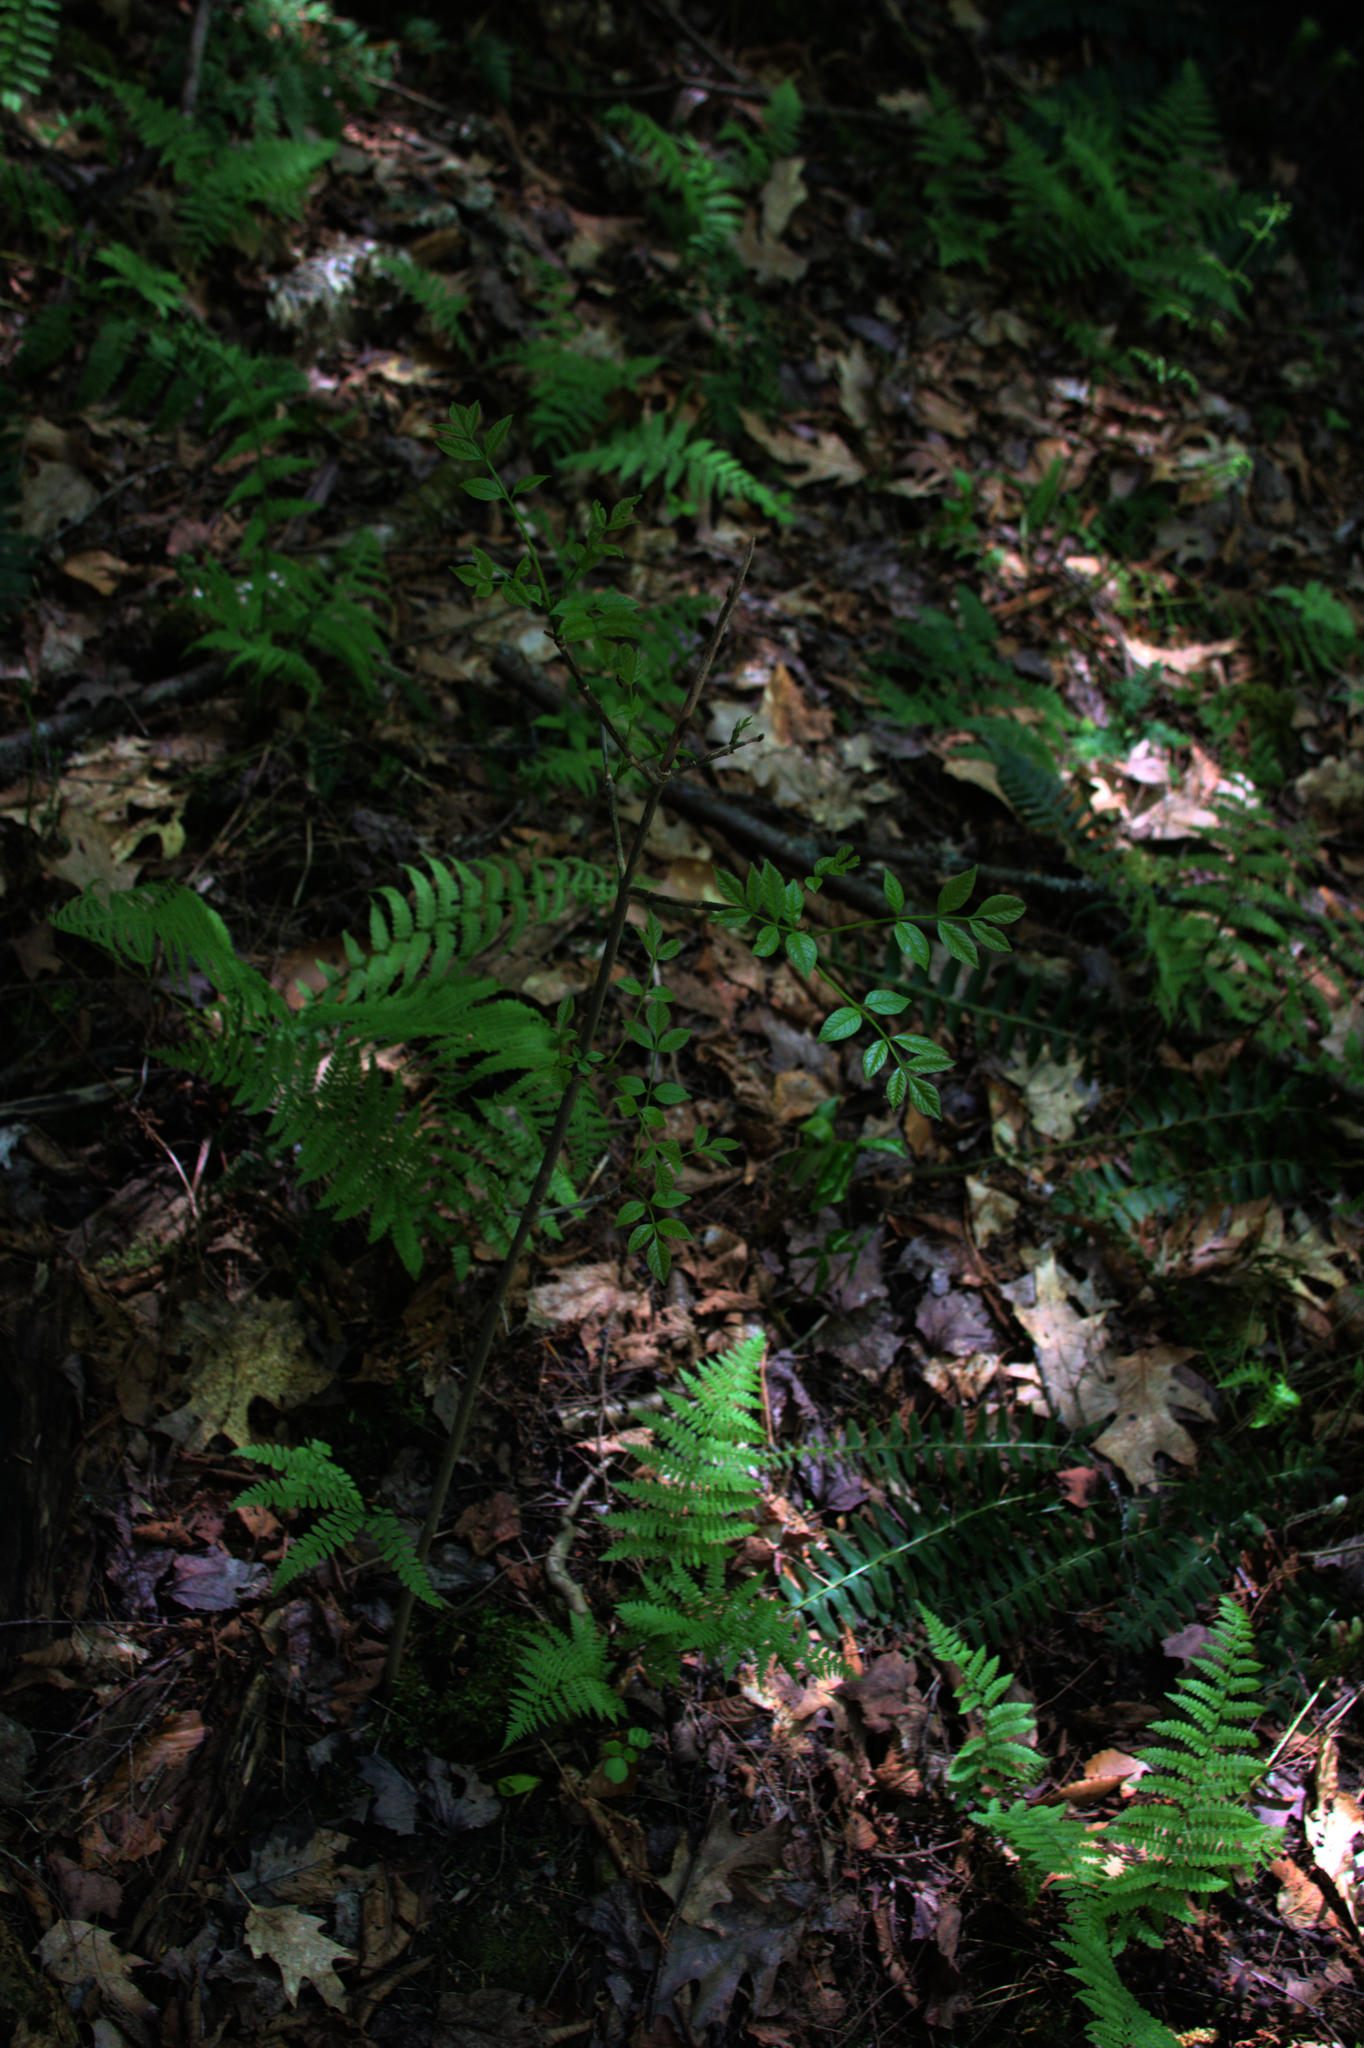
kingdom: Plantae
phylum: Tracheophyta
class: Polypodiopsida
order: Polypodiales
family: Dryopteridaceae
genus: Dryopteris
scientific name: Dryopteris intermedia
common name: Evergreen wood fern
